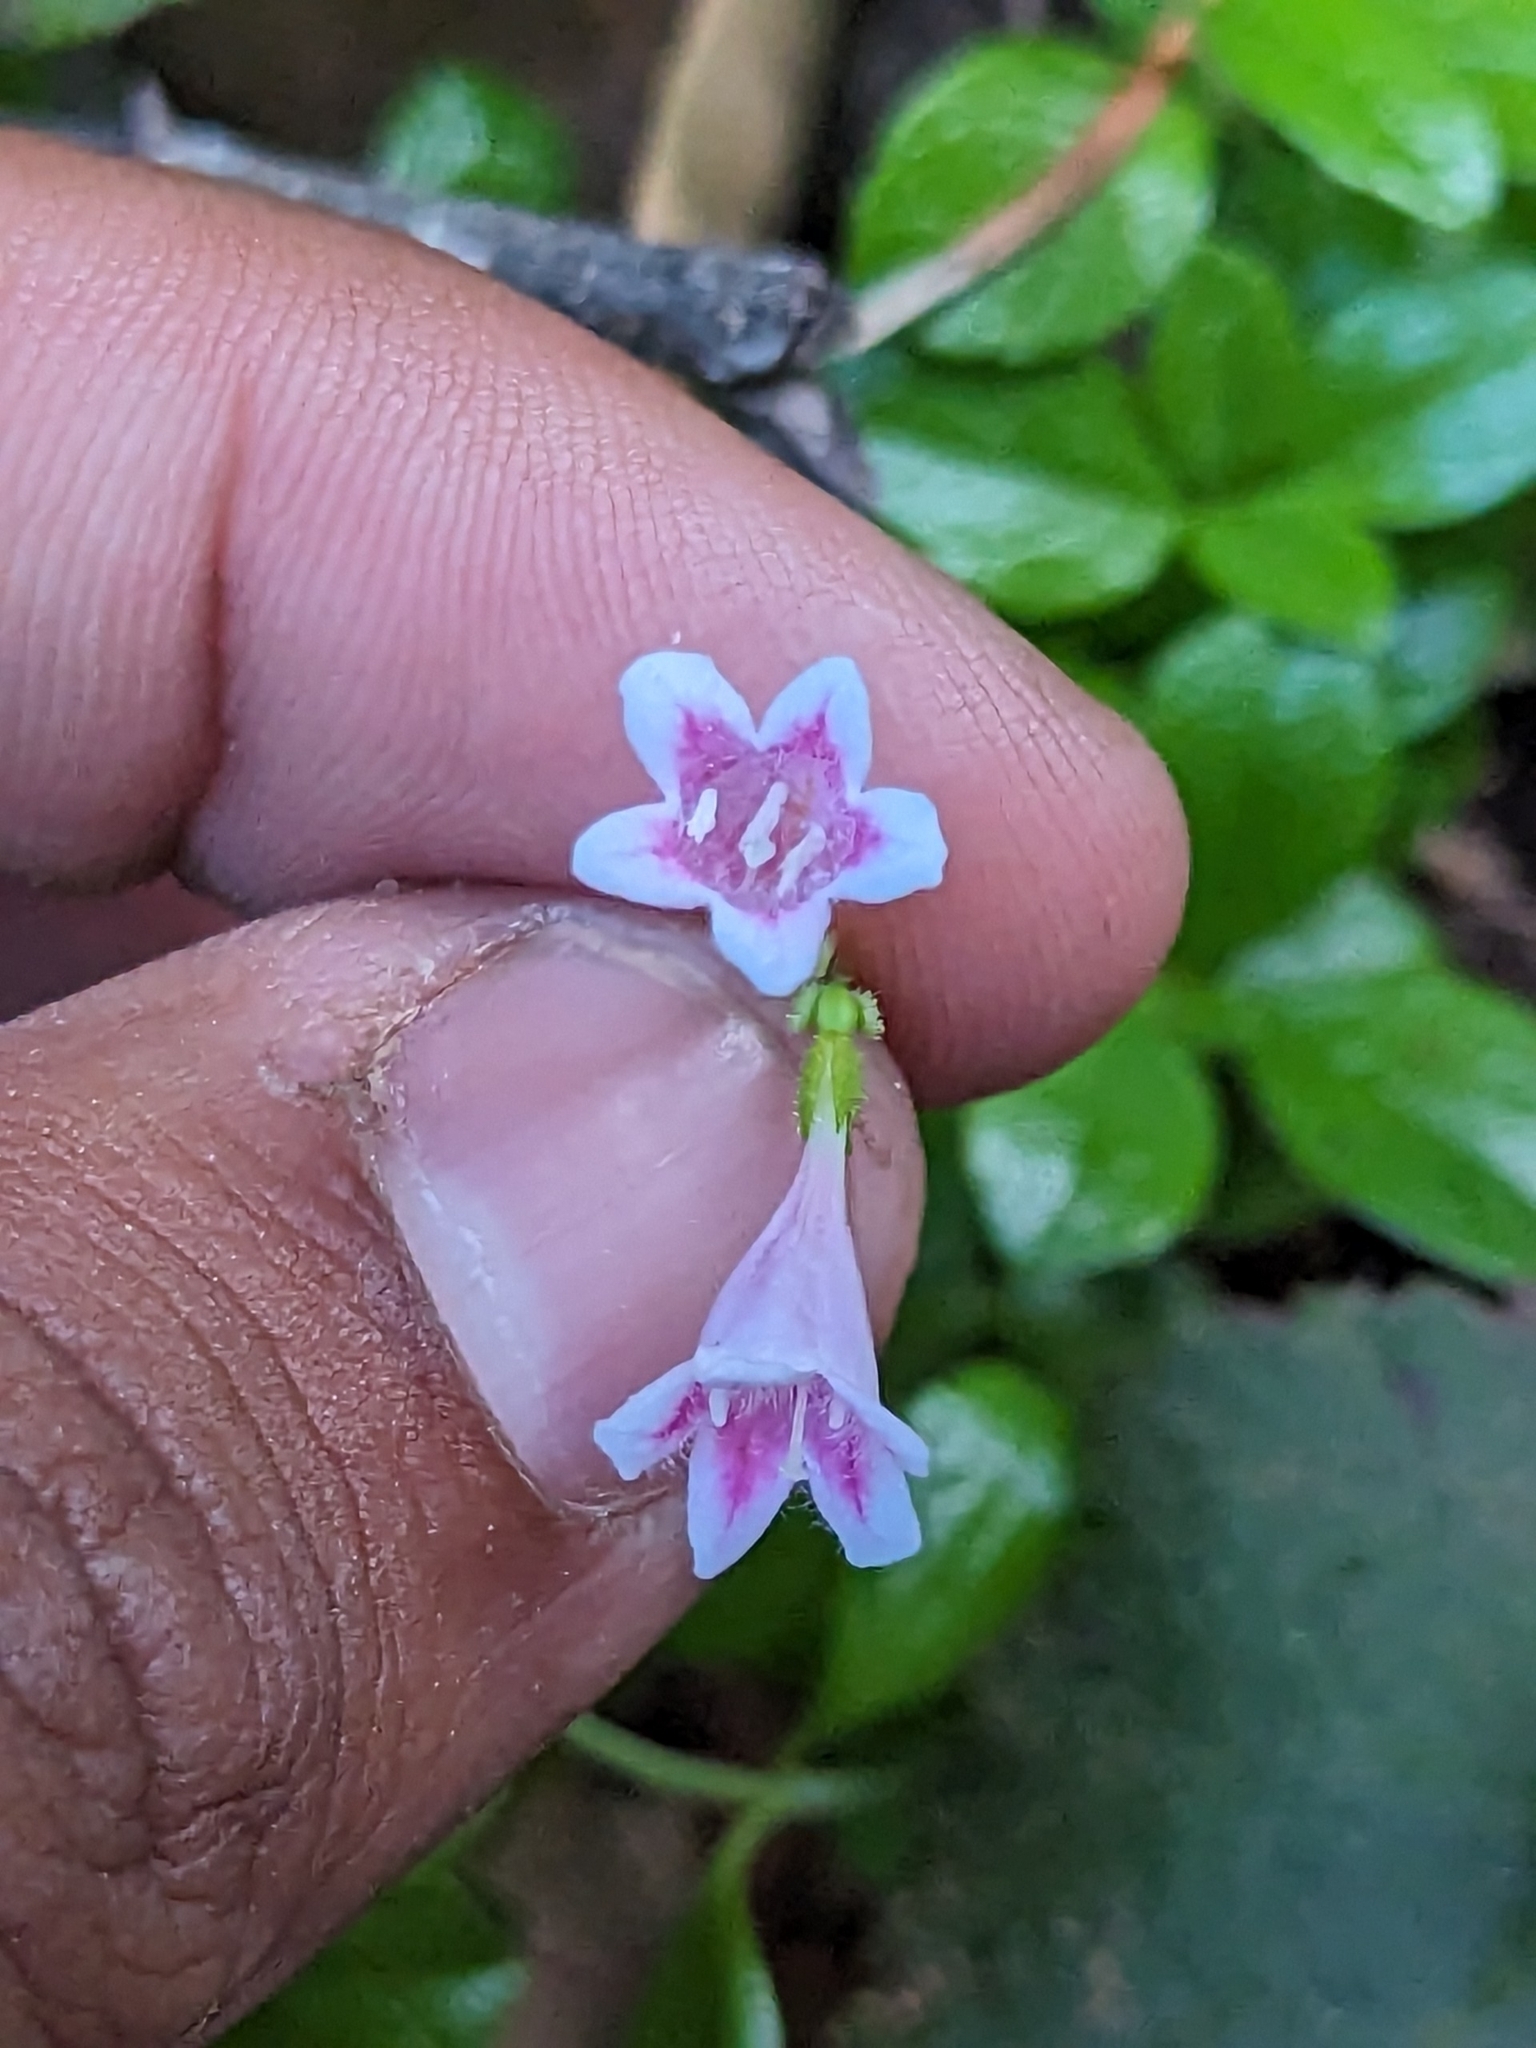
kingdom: Plantae
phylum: Tracheophyta
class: Magnoliopsida
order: Dipsacales
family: Caprifoliaceae
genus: Linnaea
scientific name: Linnaea borealis
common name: Twinflower
